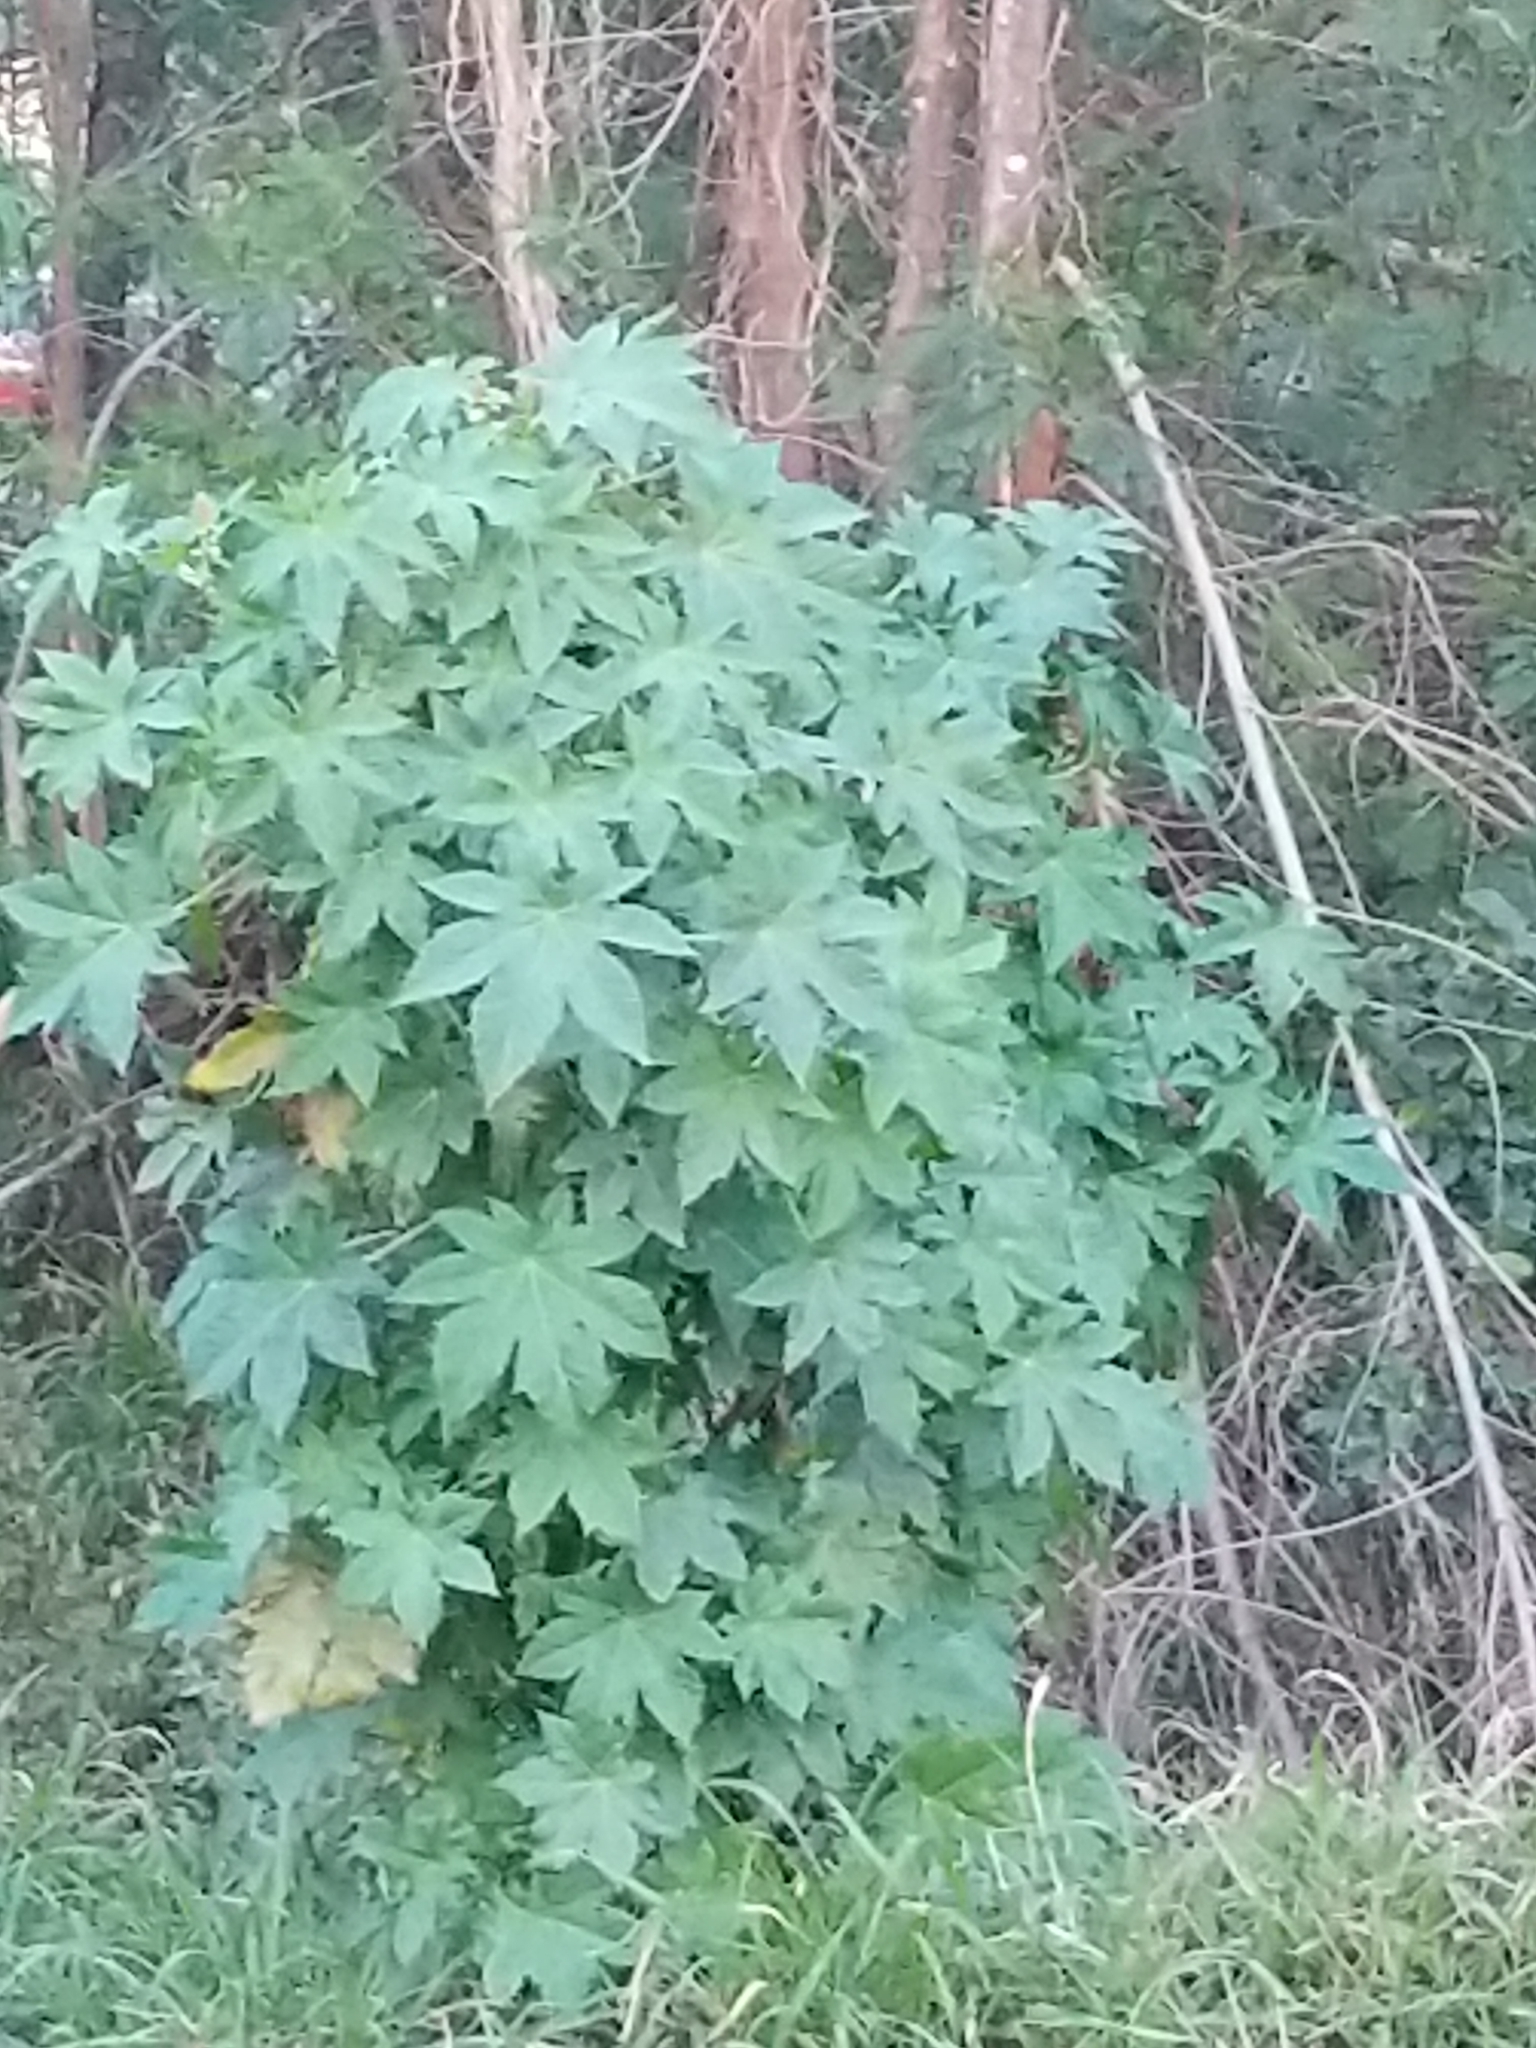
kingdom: Plantae
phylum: Tracheophyta
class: Magnoliopsida
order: Malpighiales
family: Euphorbiaceae
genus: Ricinus
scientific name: Ricinus communis
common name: Castor-oil-plant
